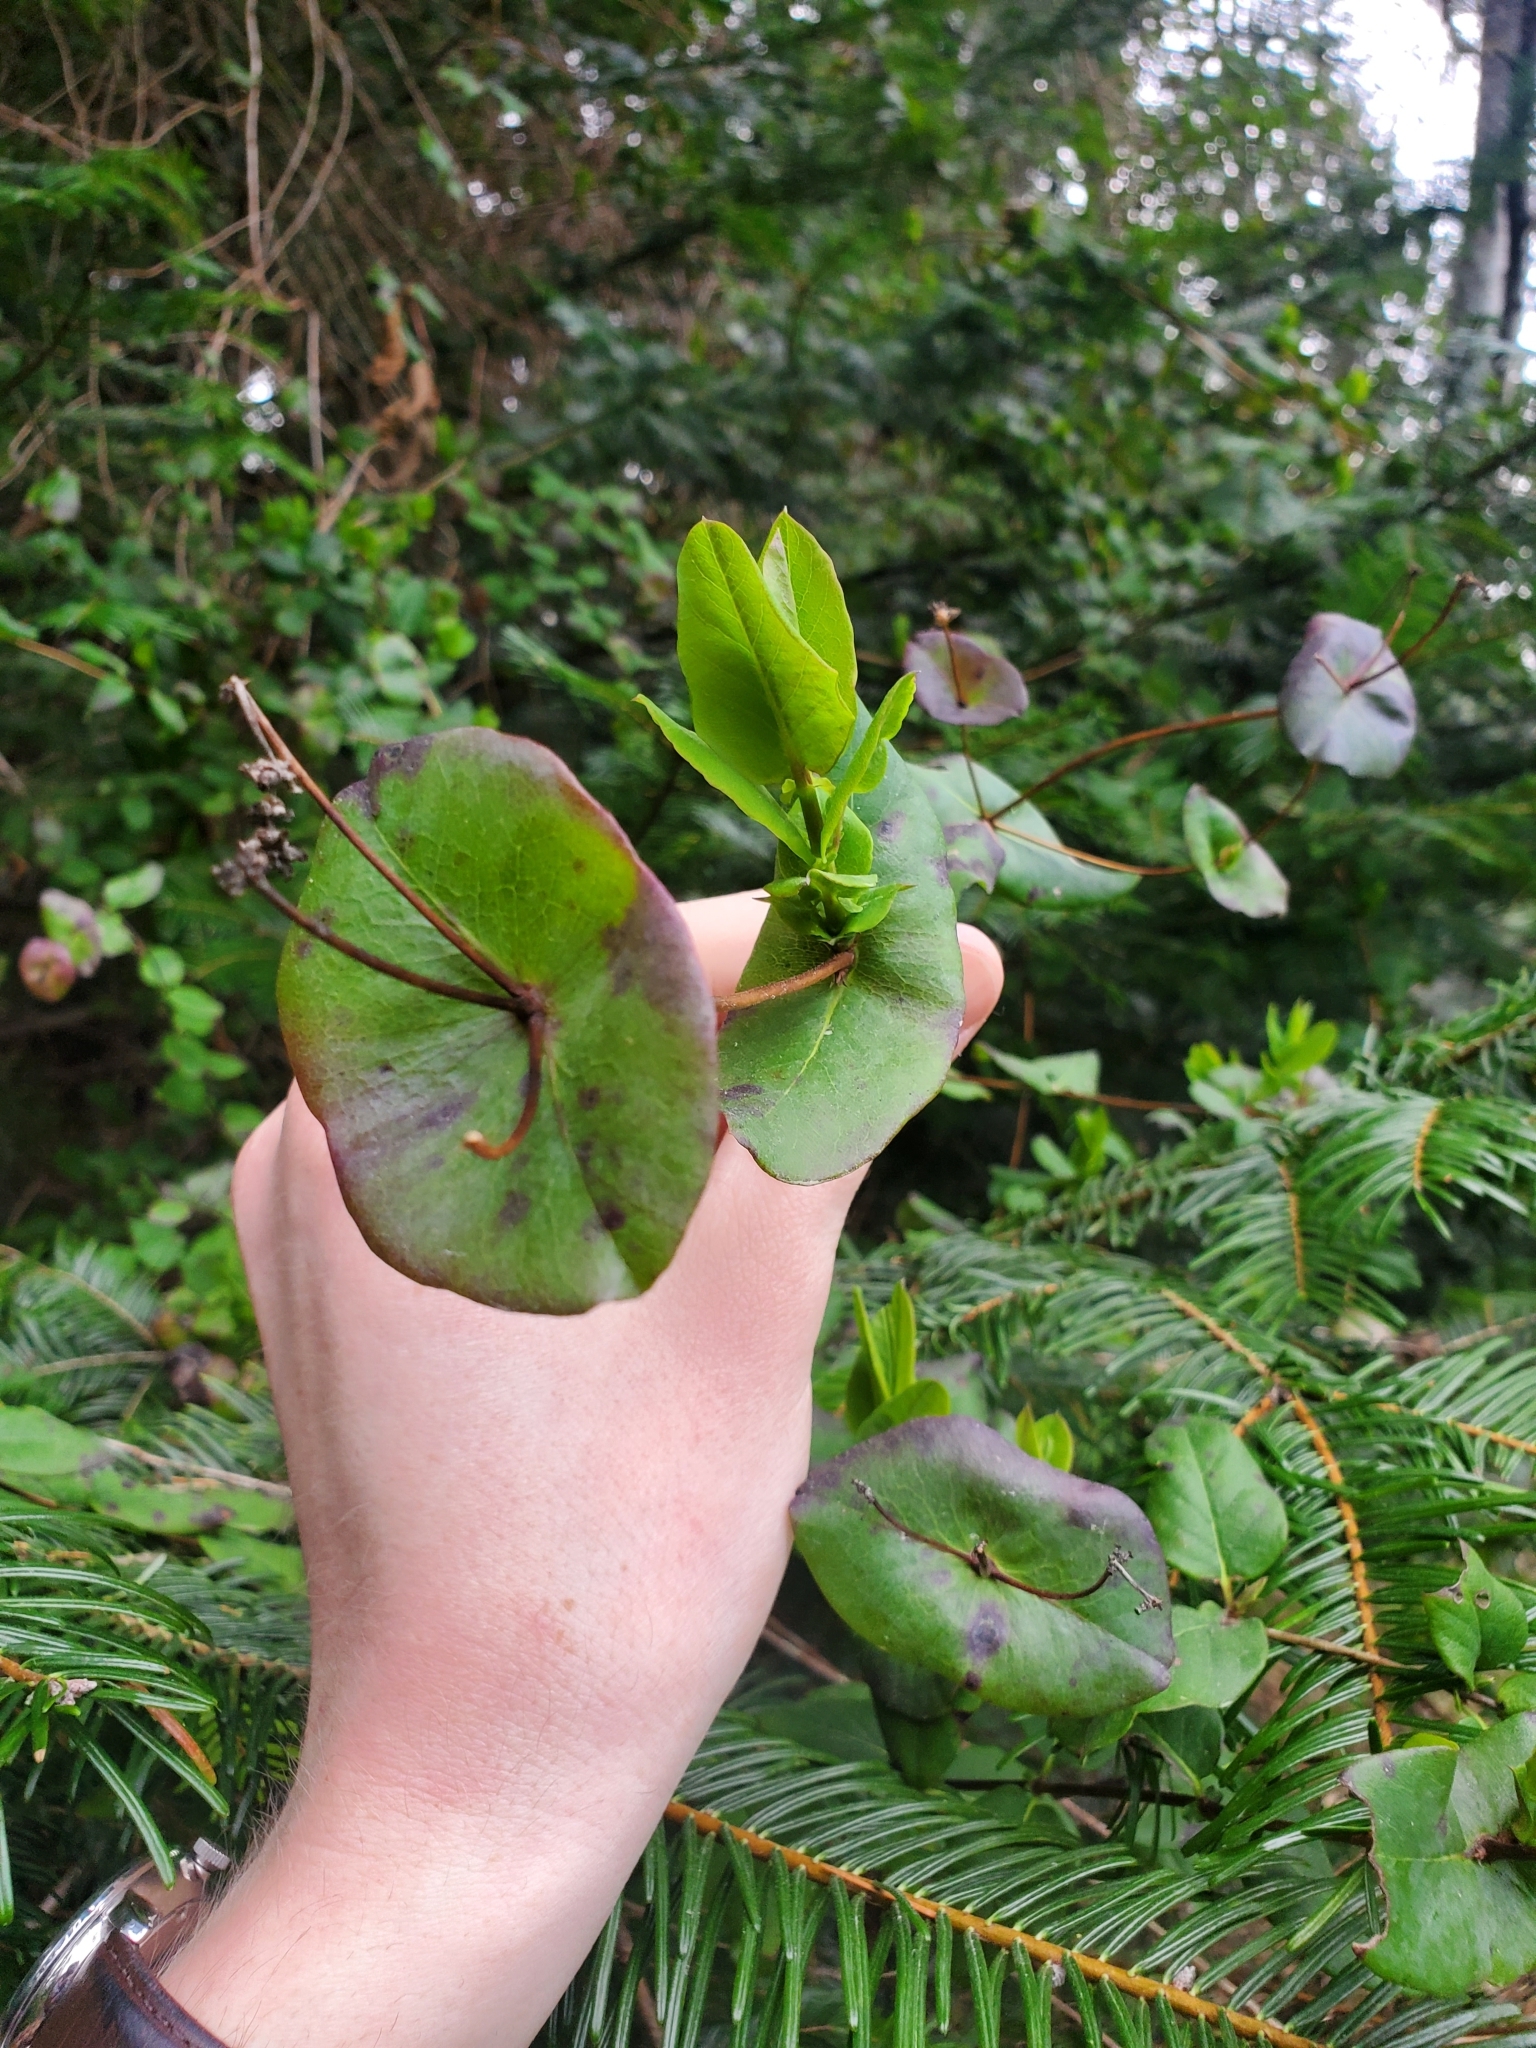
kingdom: Plantae
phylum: Tracheophyta
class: Magnoliopsida
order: Dipsacales
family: Caprifoliaceae
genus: Lonicera
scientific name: Lonicera hispidula
